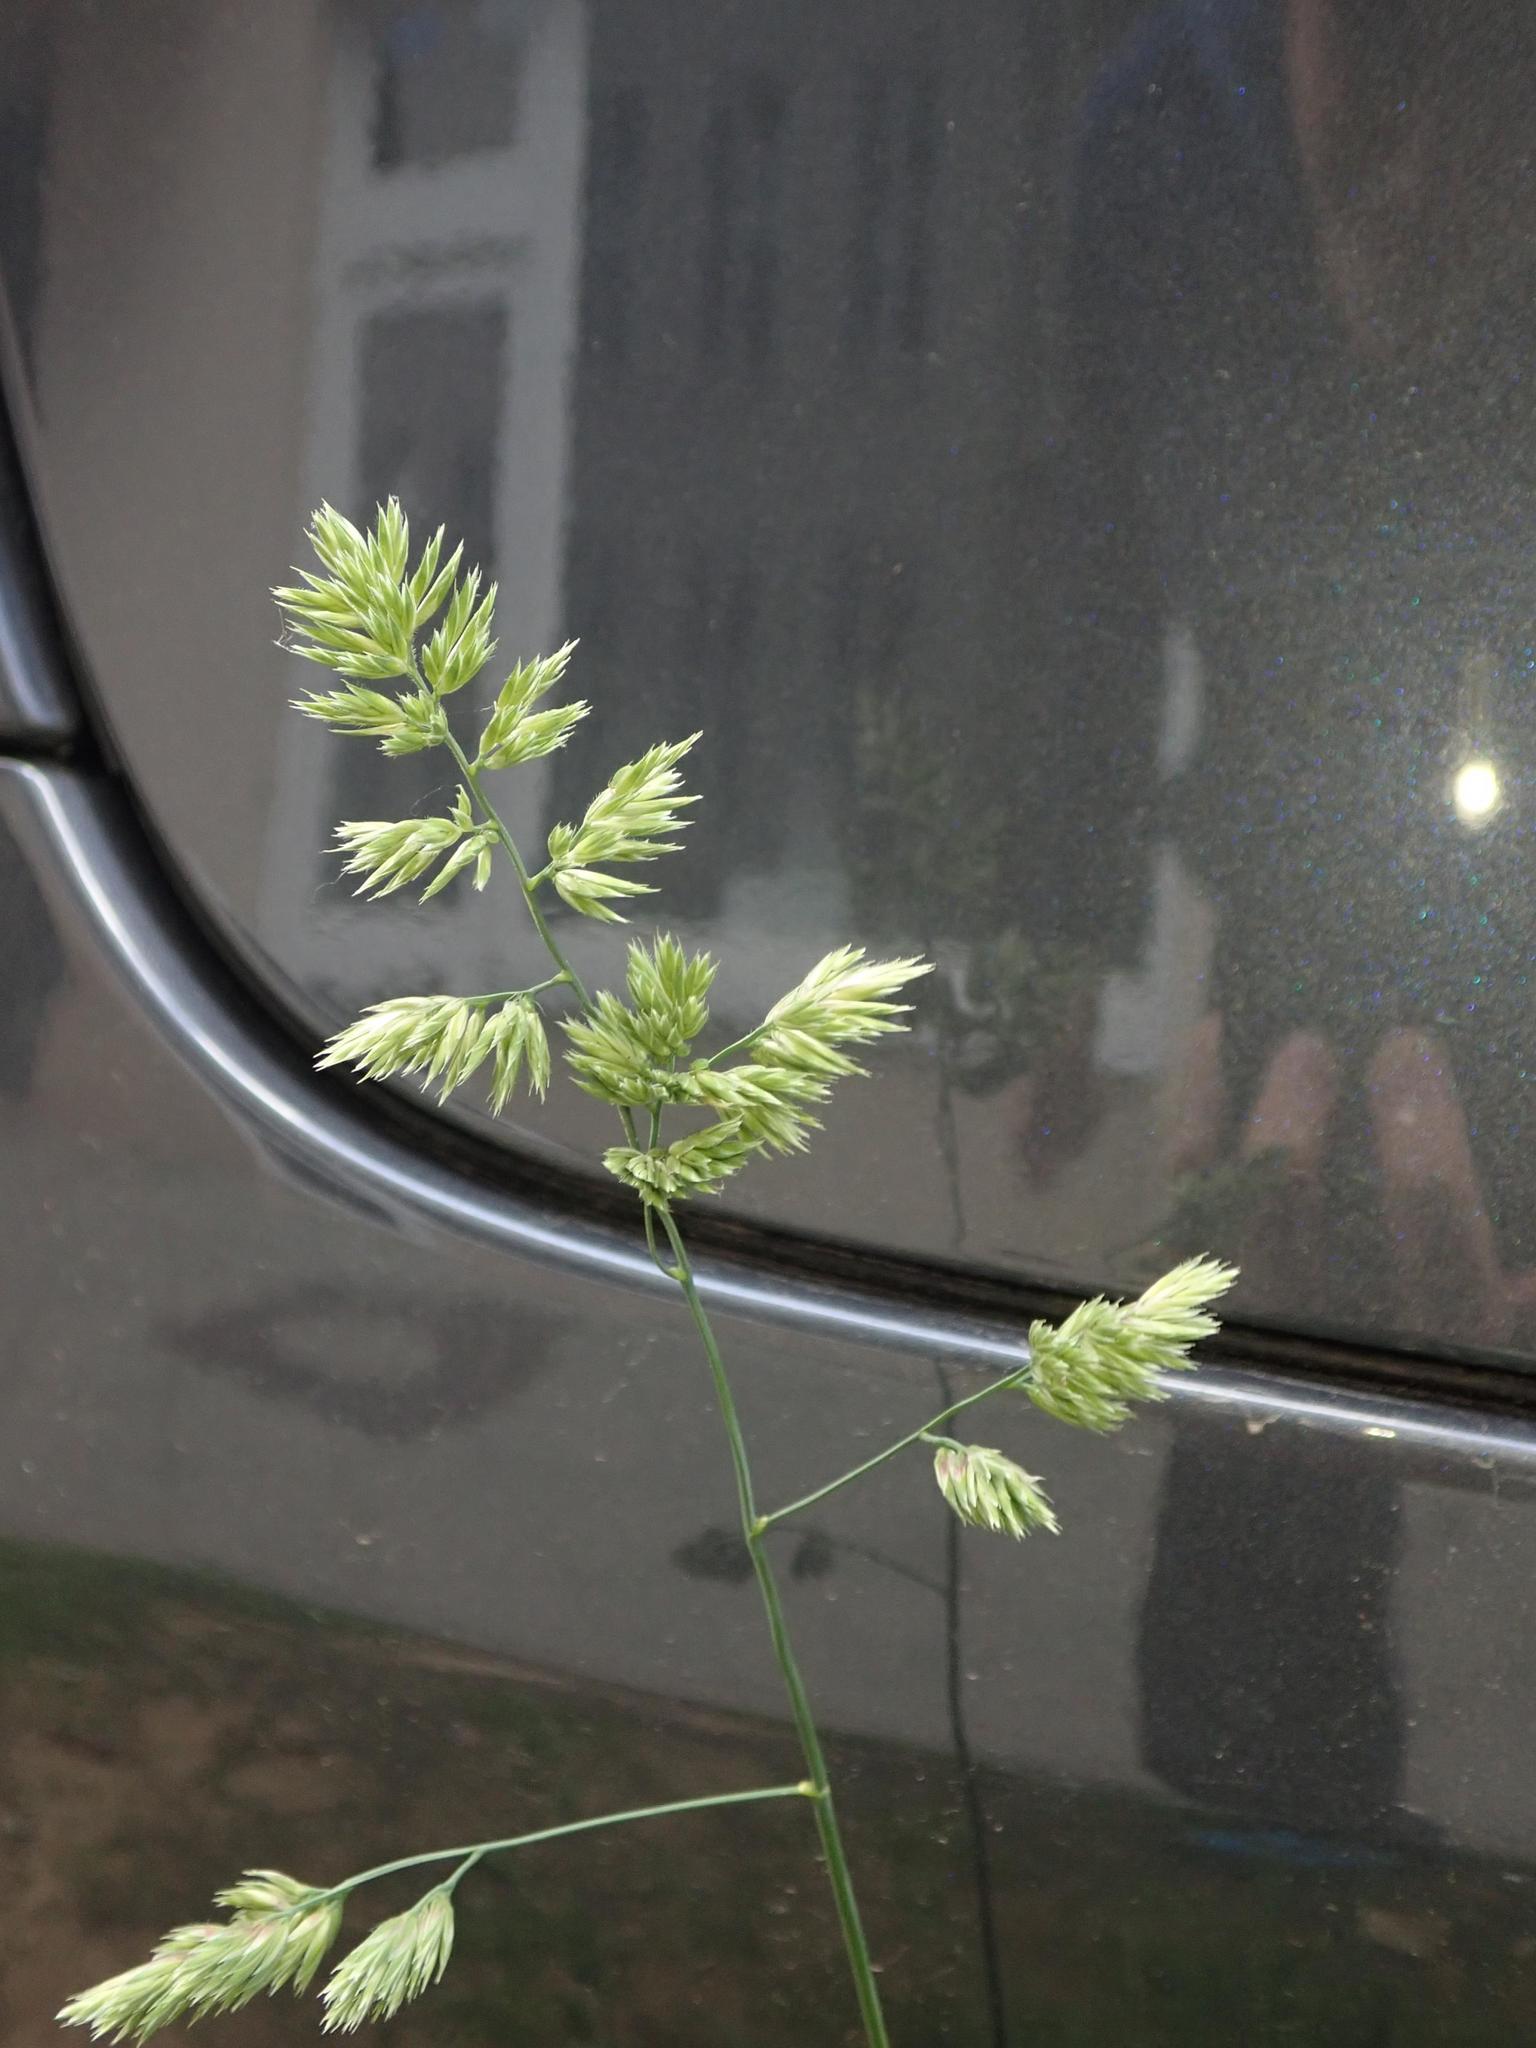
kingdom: Plantae
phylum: Tracheophyta
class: Liliopsida
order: Poales
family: Poaceae
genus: Dactylis
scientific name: Dactylis glomerata
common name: Orchardgrass
